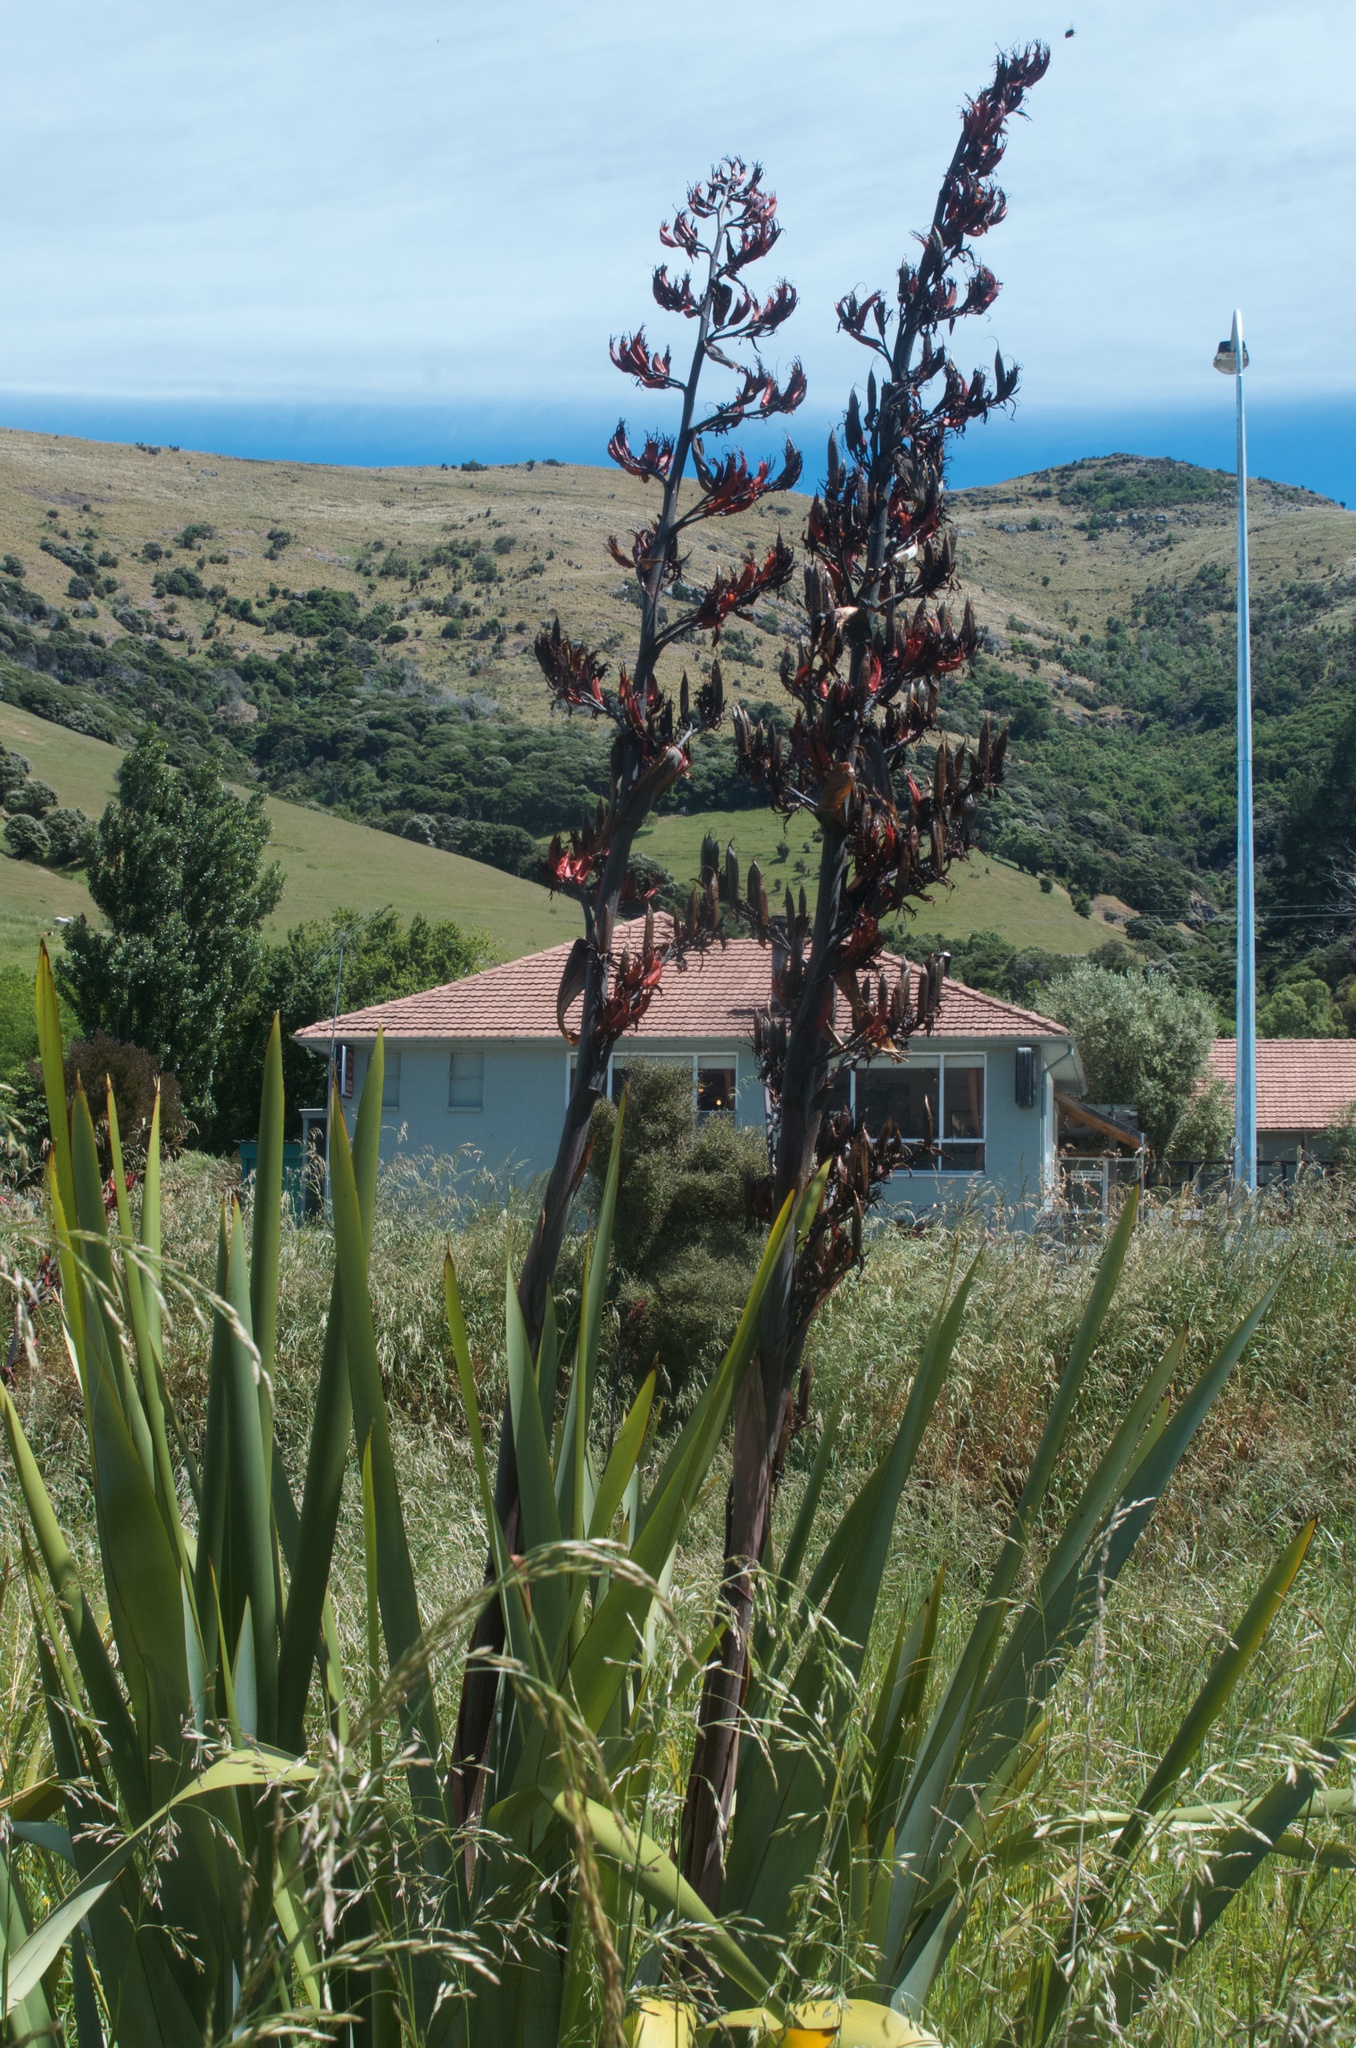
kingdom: Plantae
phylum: Tracheophyta
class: Liliopsida
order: Asparagales
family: Asphodelaceae
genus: Phormium
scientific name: Phormium tenax
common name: New zealand flax
